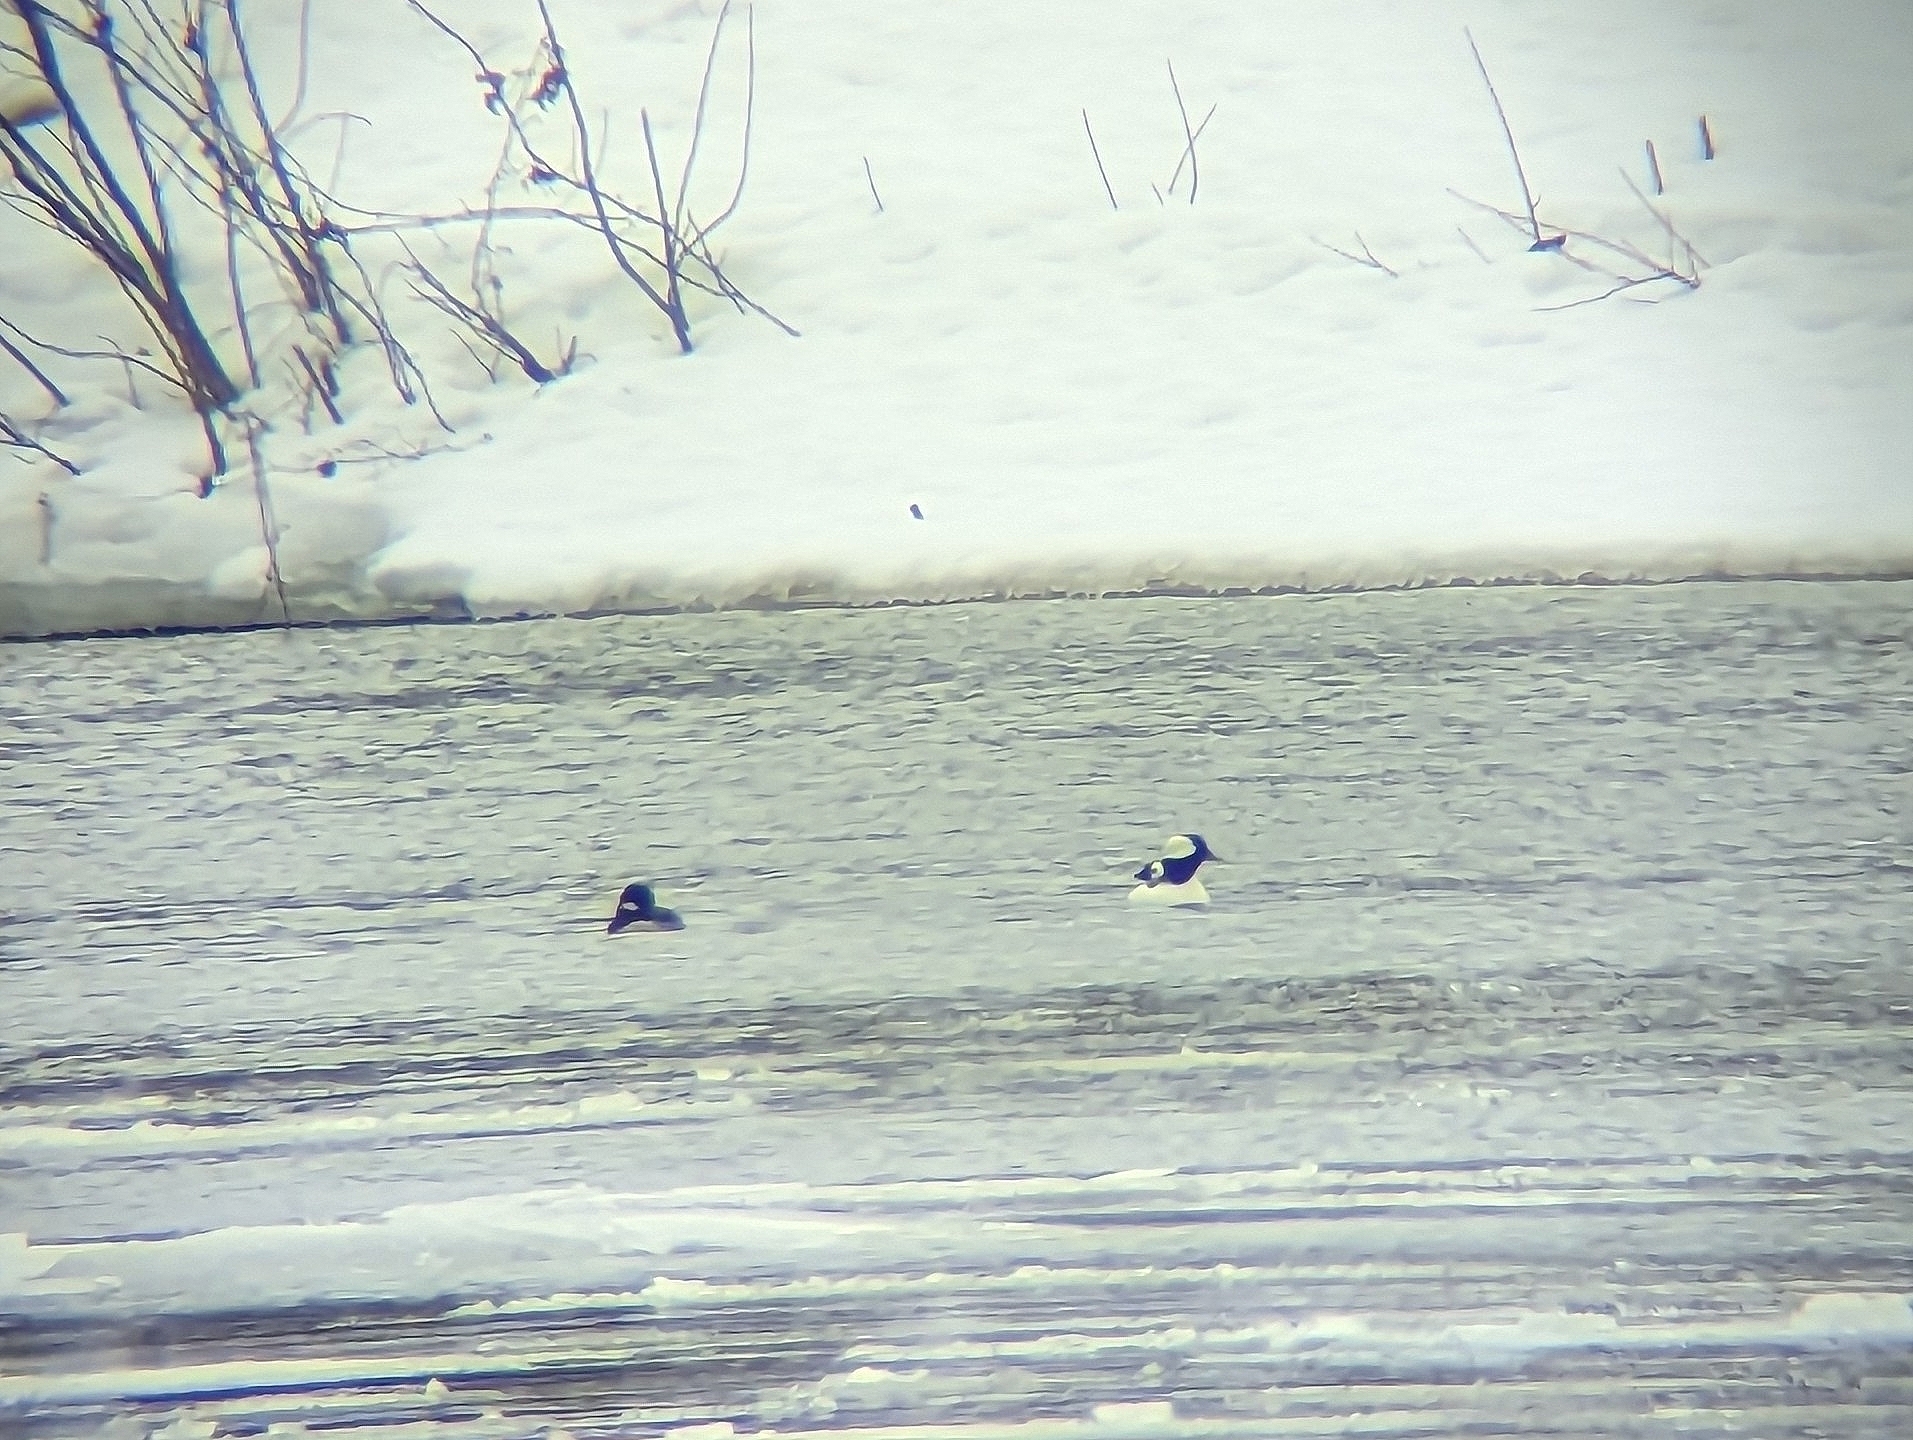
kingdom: Animalia
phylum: Chordata
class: Aves
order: Anseriformes
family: Anatidae
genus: Bucephala
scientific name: Bucephala albeola
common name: Bufflehead
